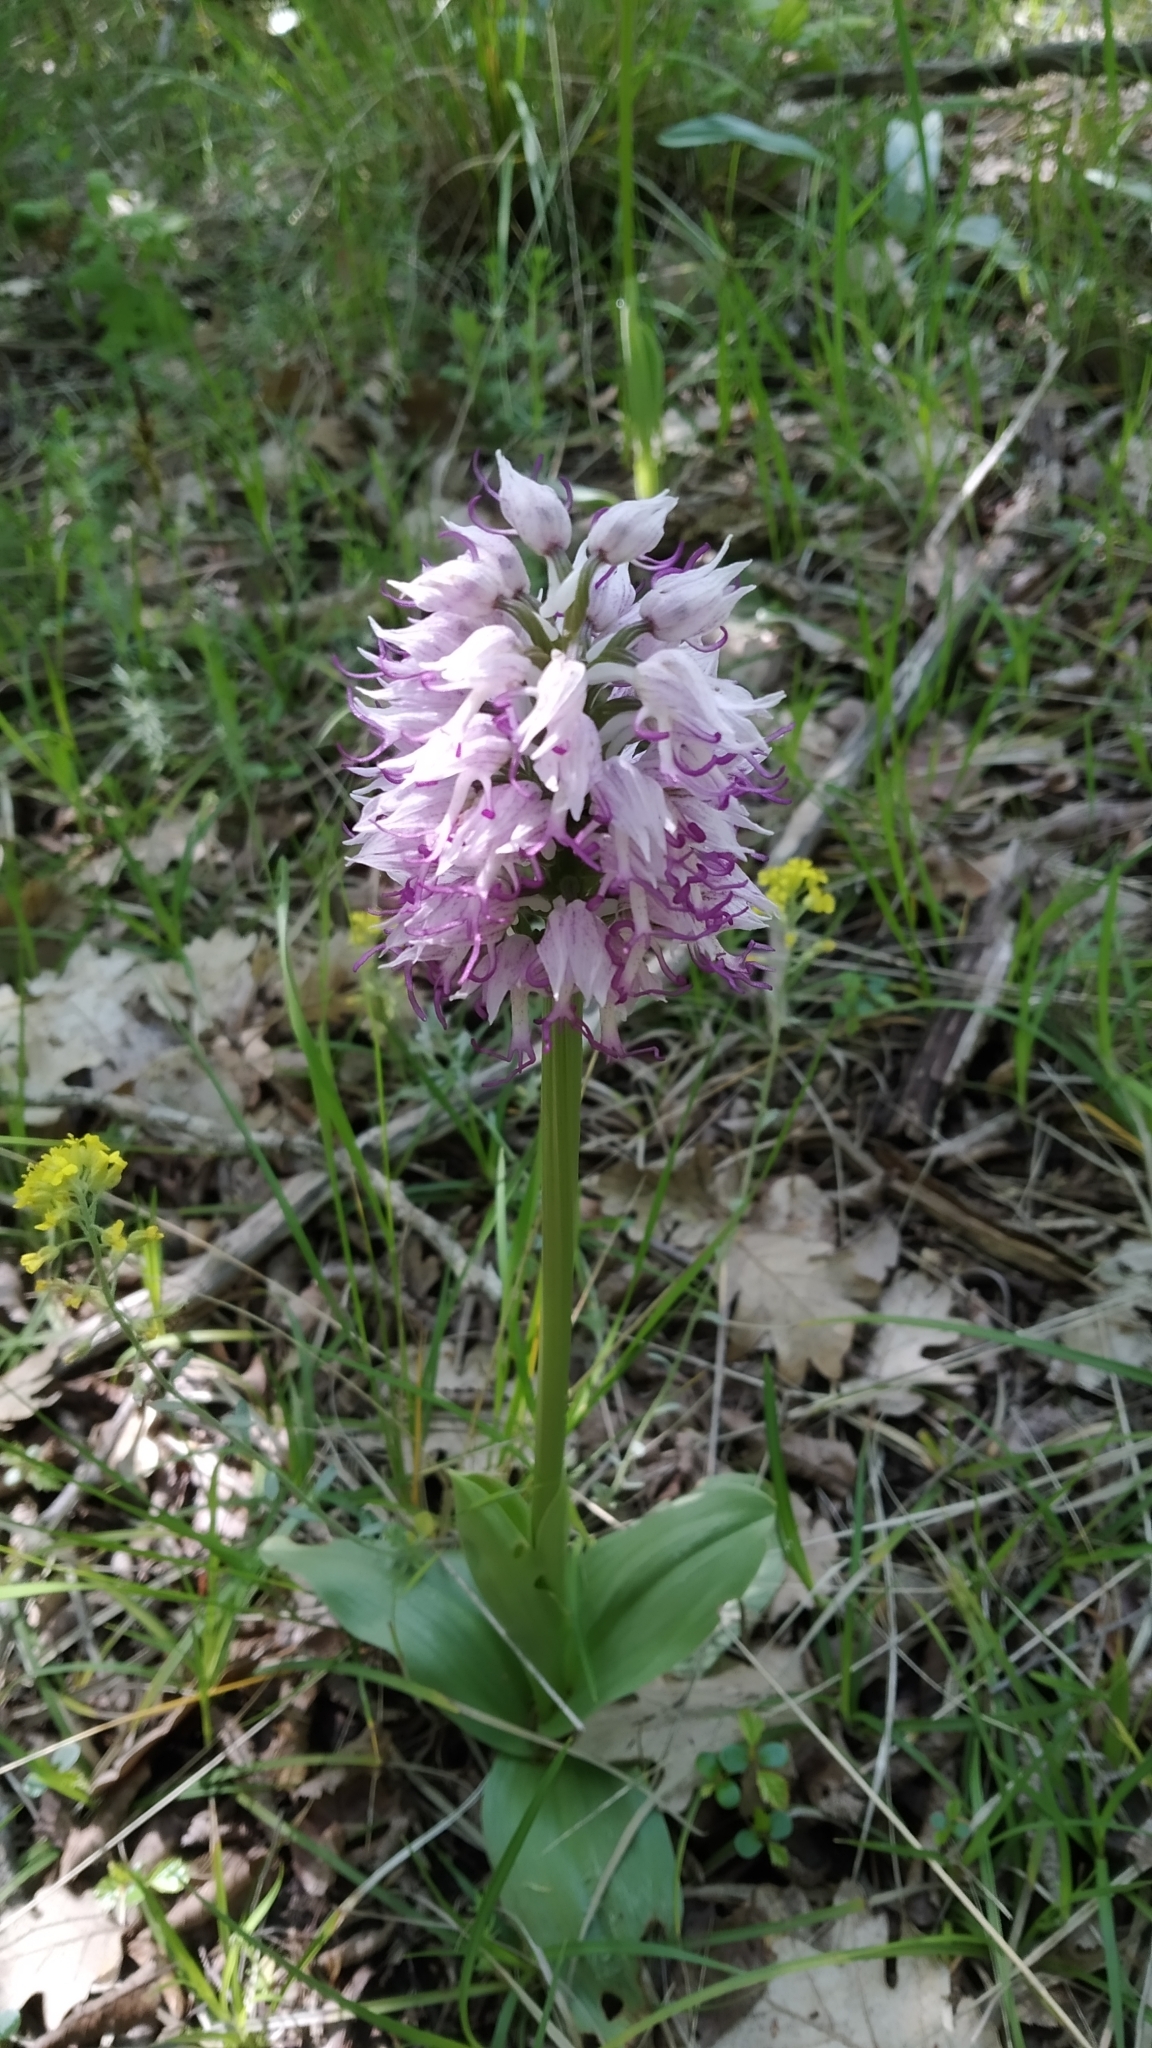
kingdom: Plantae
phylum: Tracheophyta
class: Liliopsida
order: Asparagales
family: Orchidaceae
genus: Orchis
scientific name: Orchis simia
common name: Monkey orchid
